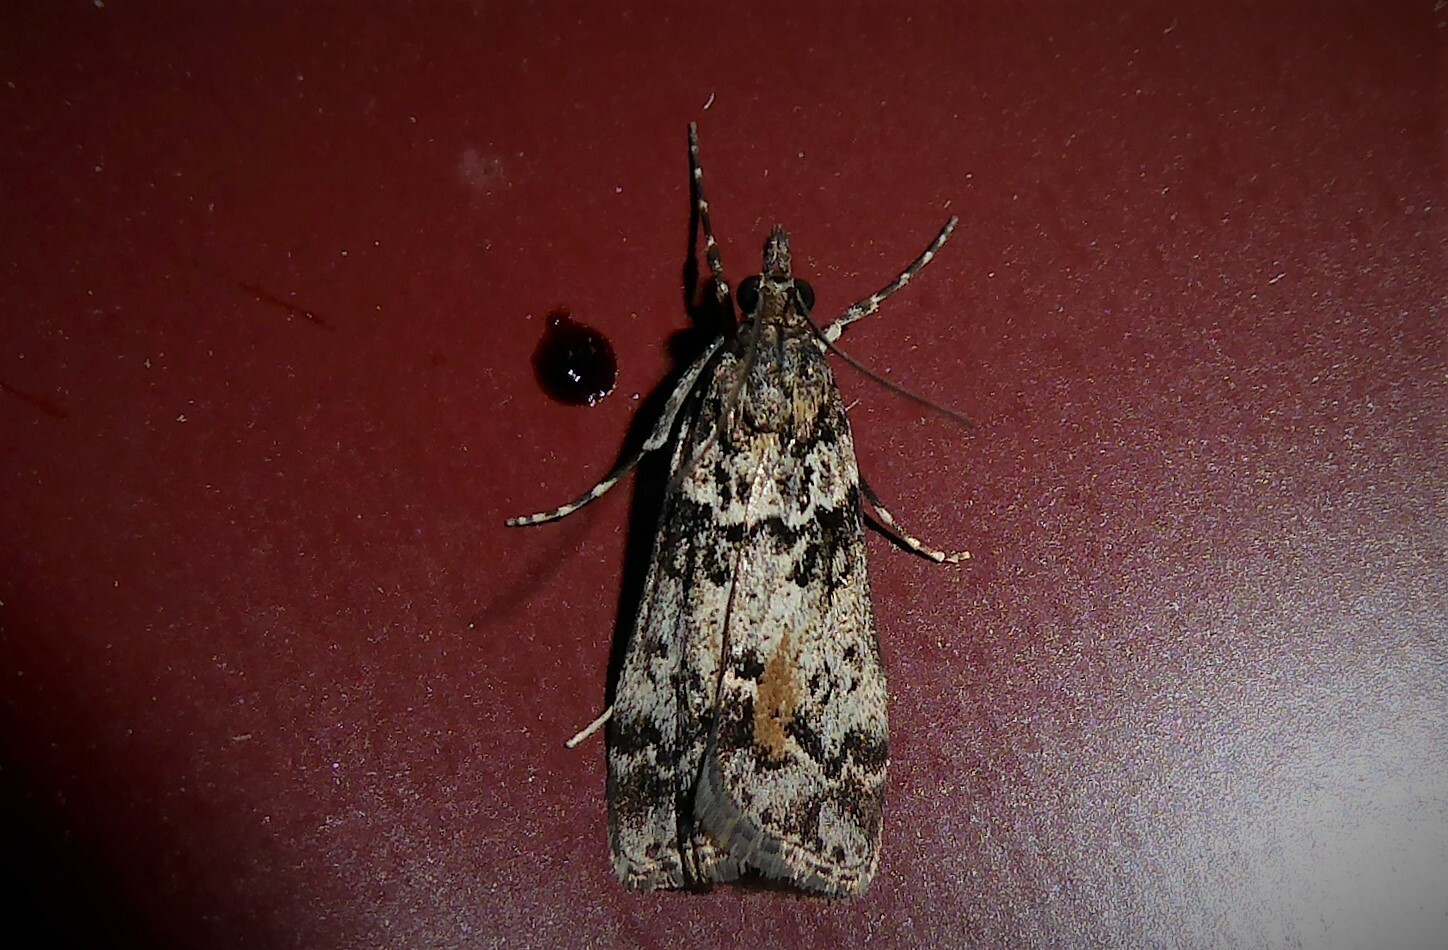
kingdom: Animalia
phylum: Arthropoda
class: Insecta
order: Lepidoptera
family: Crambidae
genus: Eudonia
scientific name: Eudonia submarginalis
